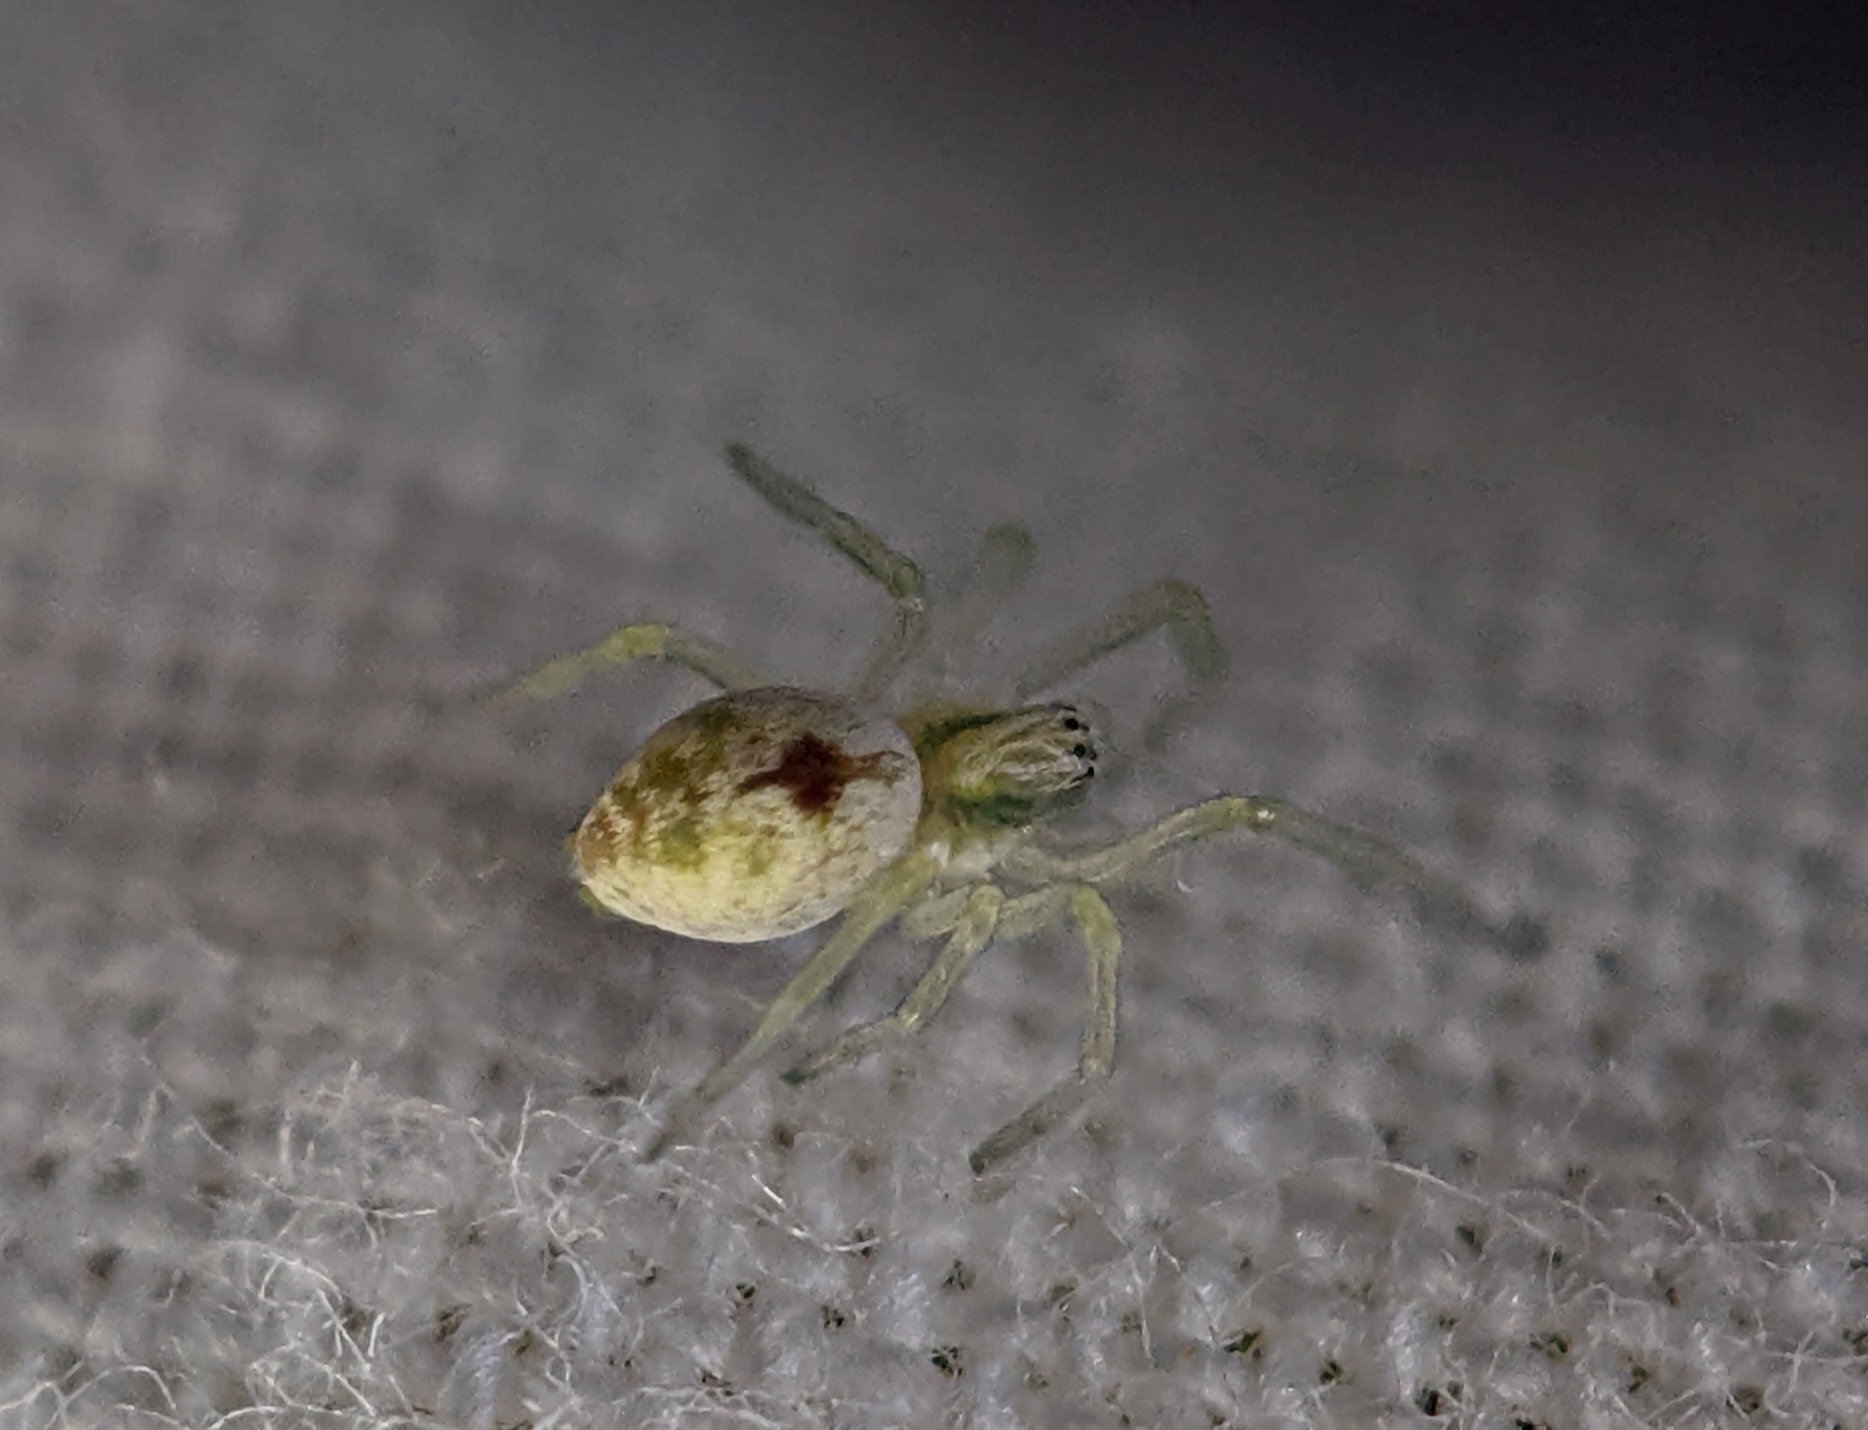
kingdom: Animalia
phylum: Arthropoda
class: Arachnida
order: Araneae
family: Dictynidae
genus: Nigma
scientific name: Nigma puella
